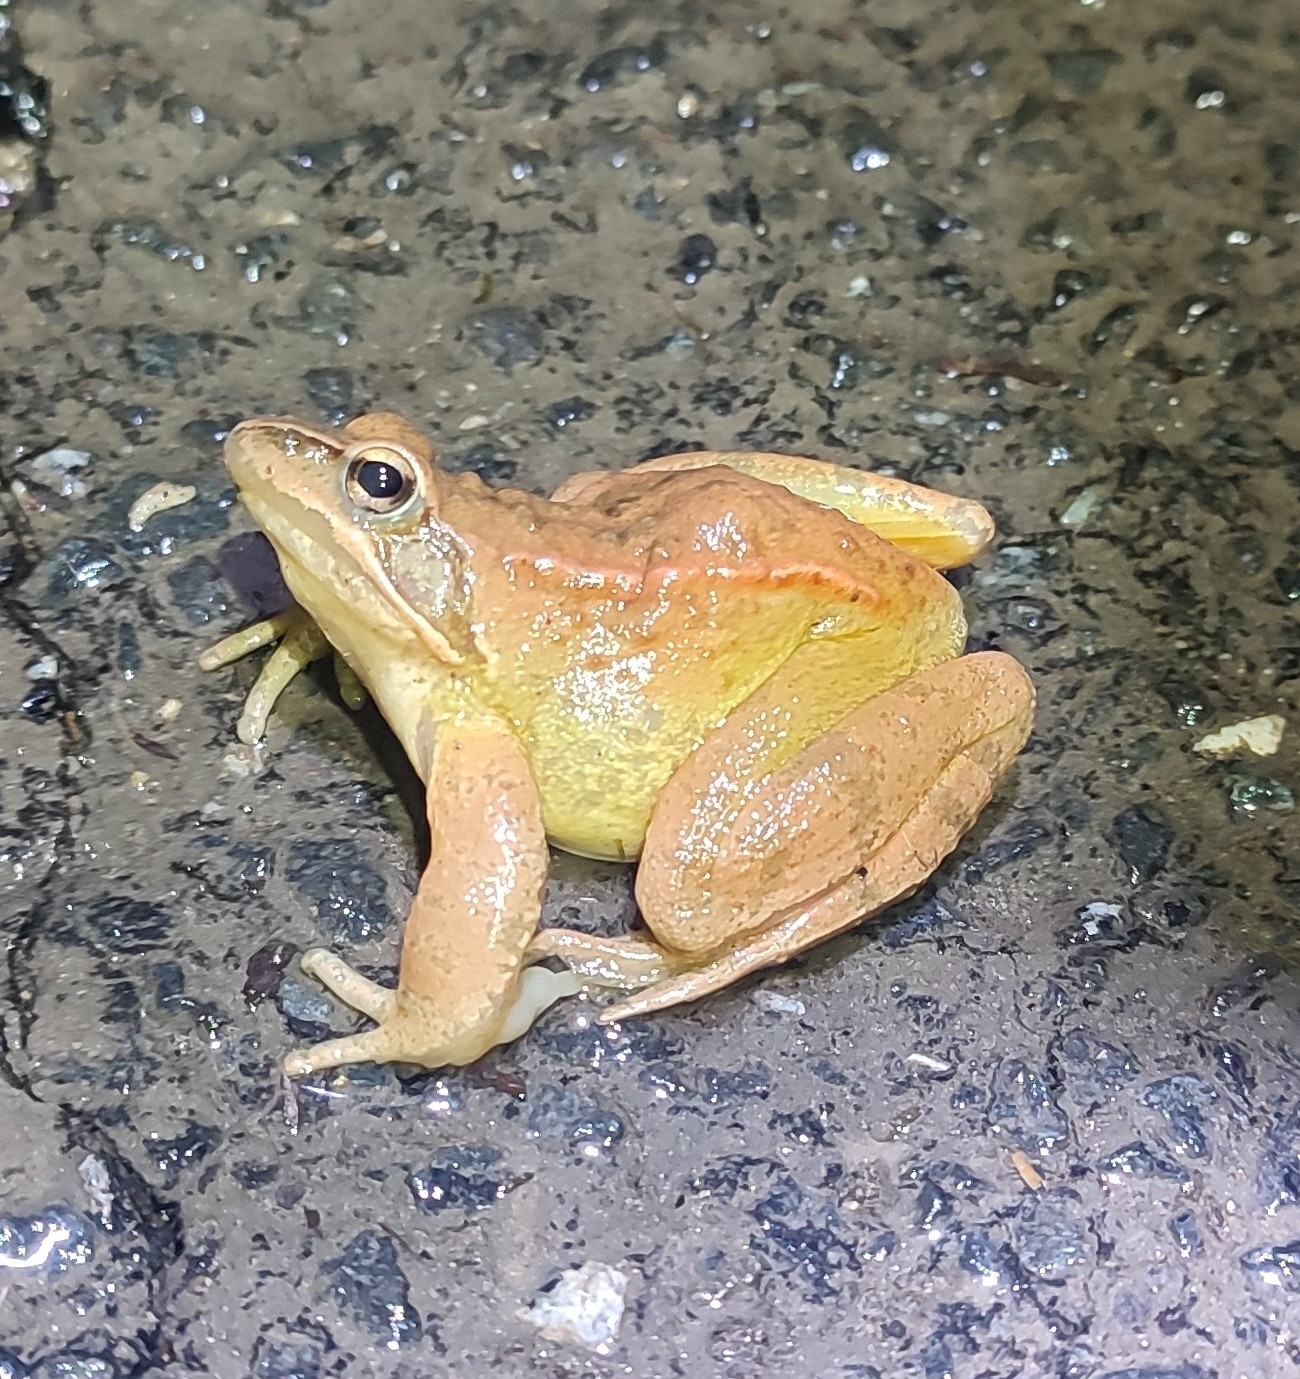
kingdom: Animalia
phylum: Chordata
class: Amphibia
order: Anura
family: Ranidae
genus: Rana
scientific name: Rana dalmatina
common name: Agile frog
